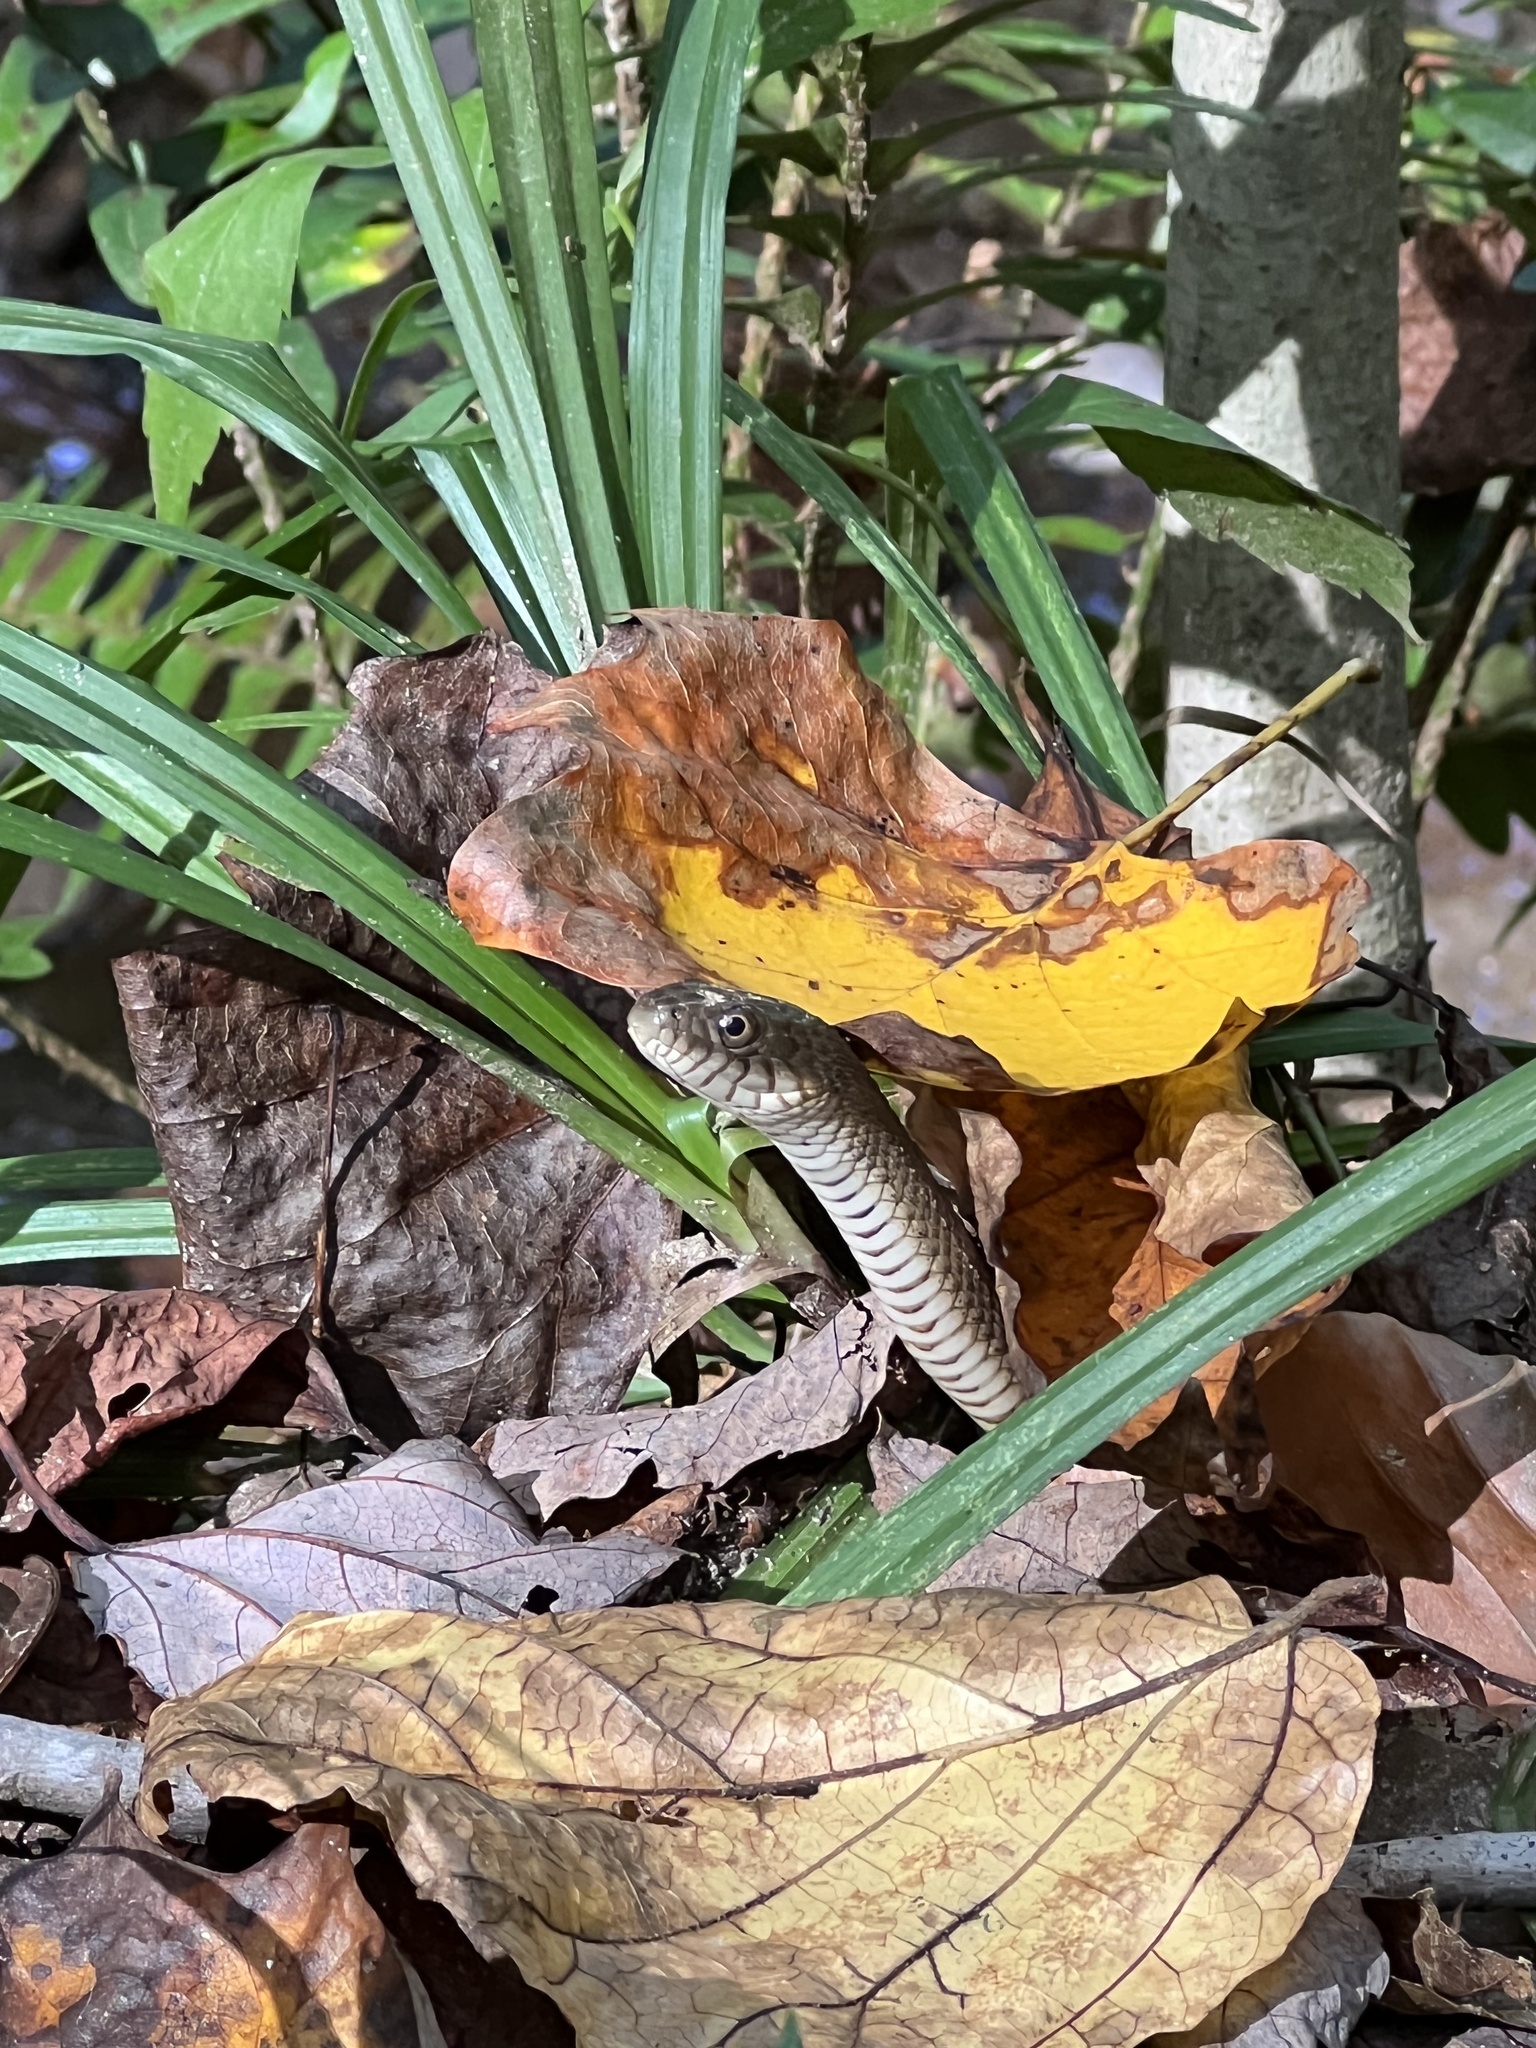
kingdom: Animalia
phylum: Chordata
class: Squamata
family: Colubridae
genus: Nerodia
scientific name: Nerodia sipedon
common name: Northern water snake
